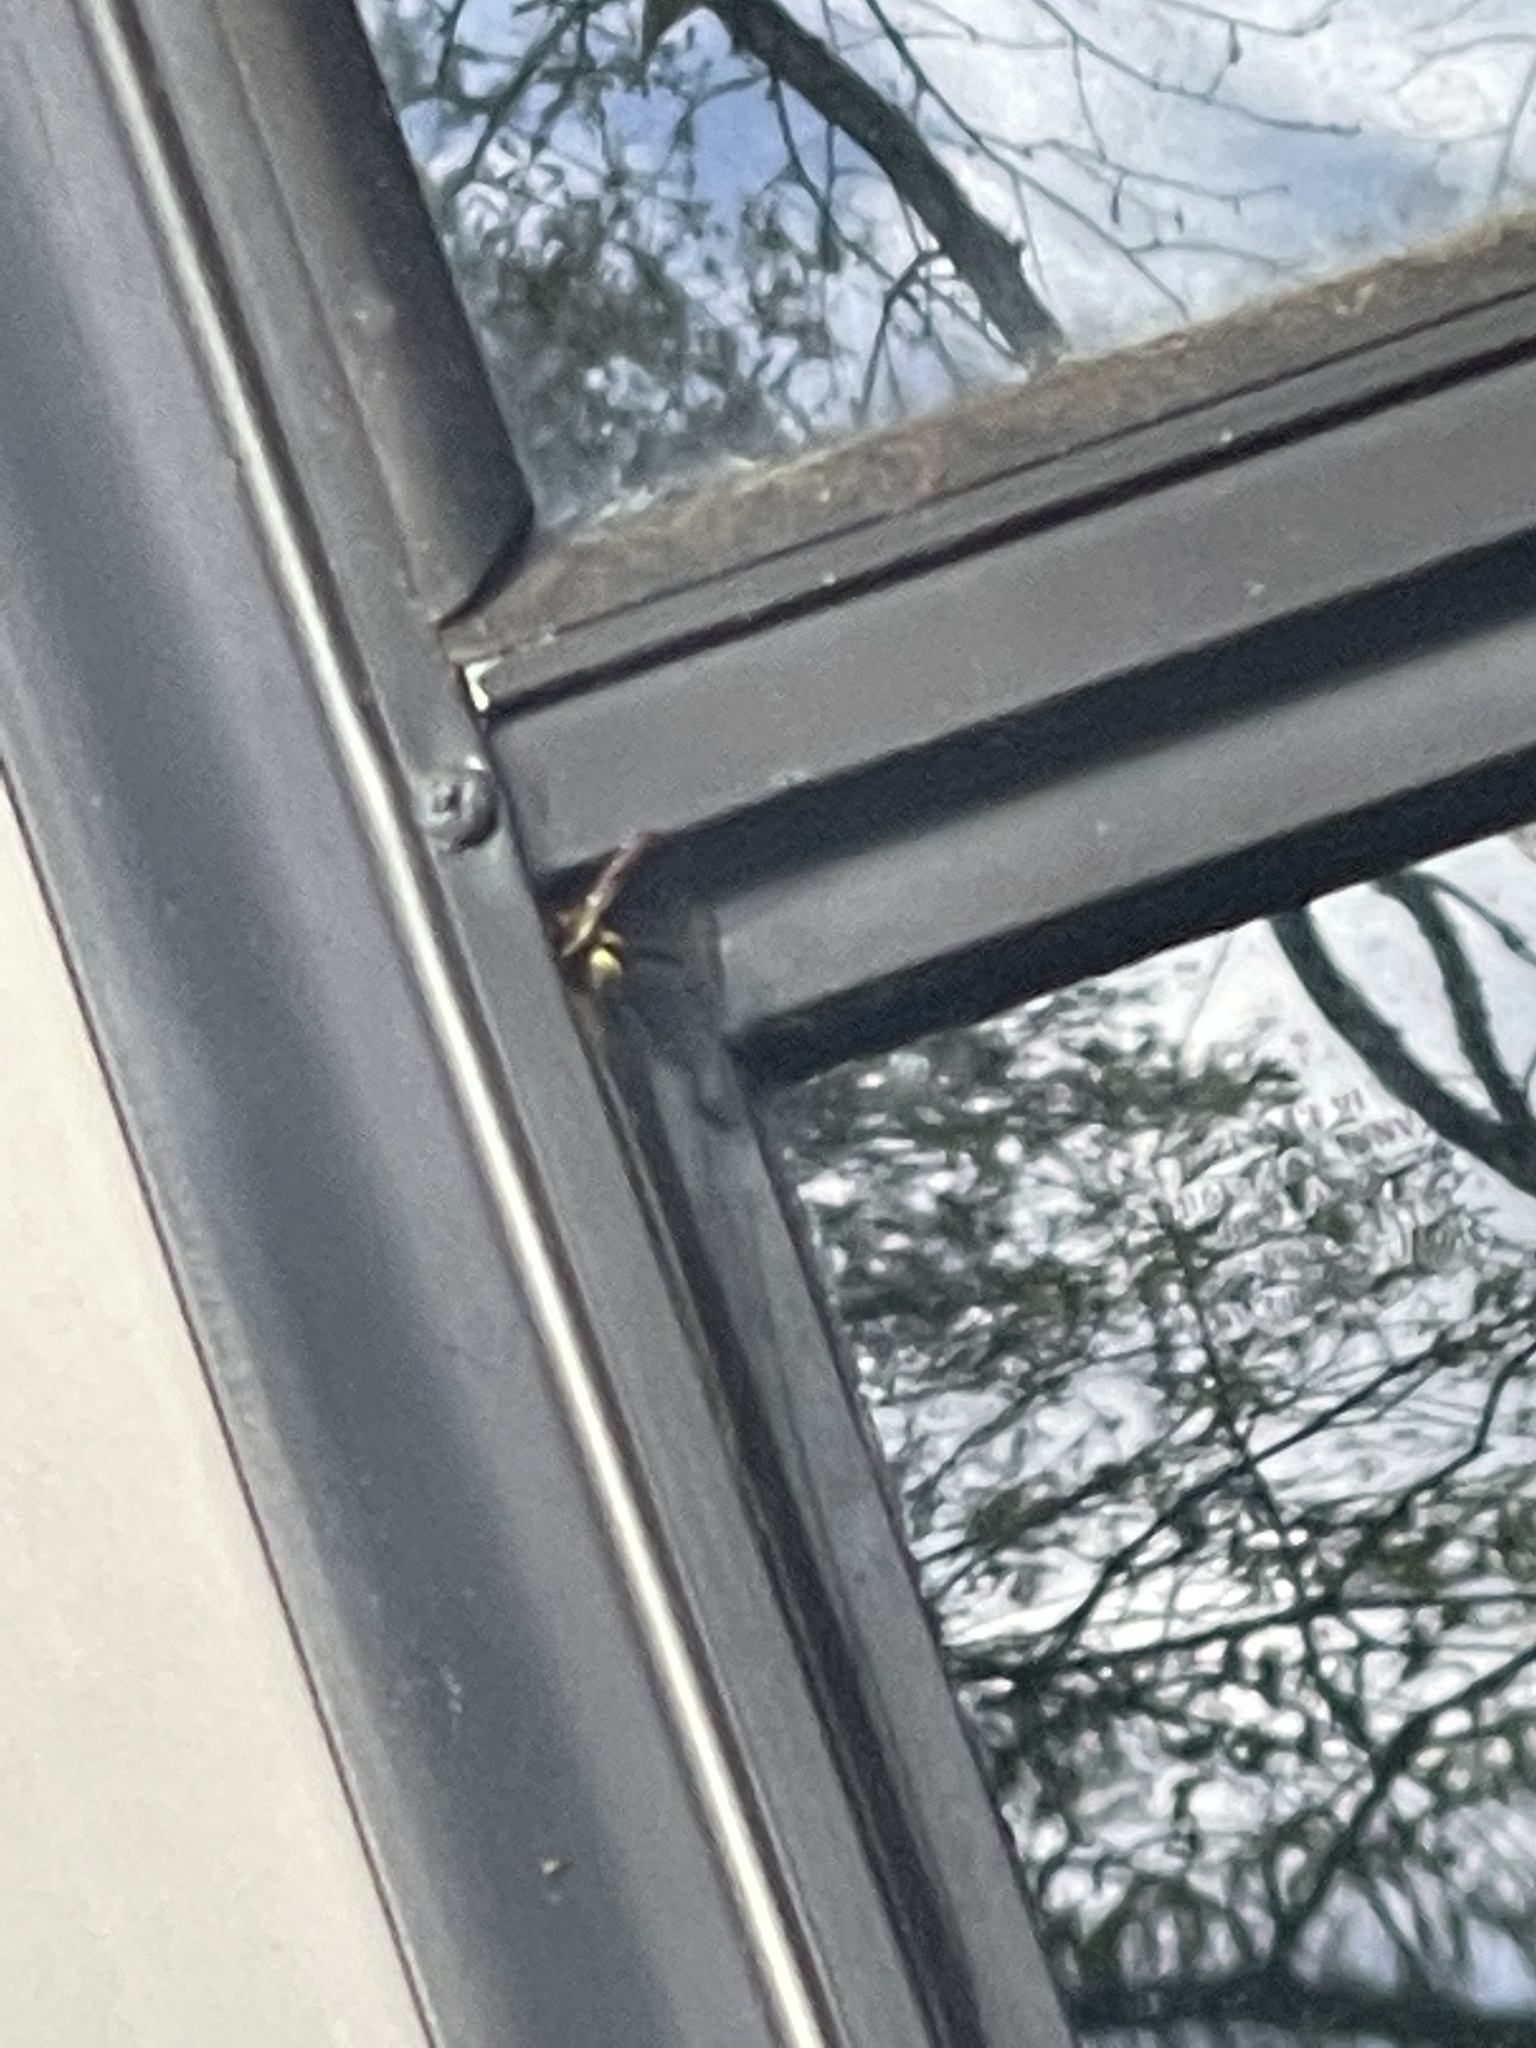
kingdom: Animalia
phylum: Arthropoda
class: Insecta
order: Hymenoptera
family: Vespidae
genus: Ancistrocerus
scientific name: Ancistrocerus campestris
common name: Smiling mason wasp
